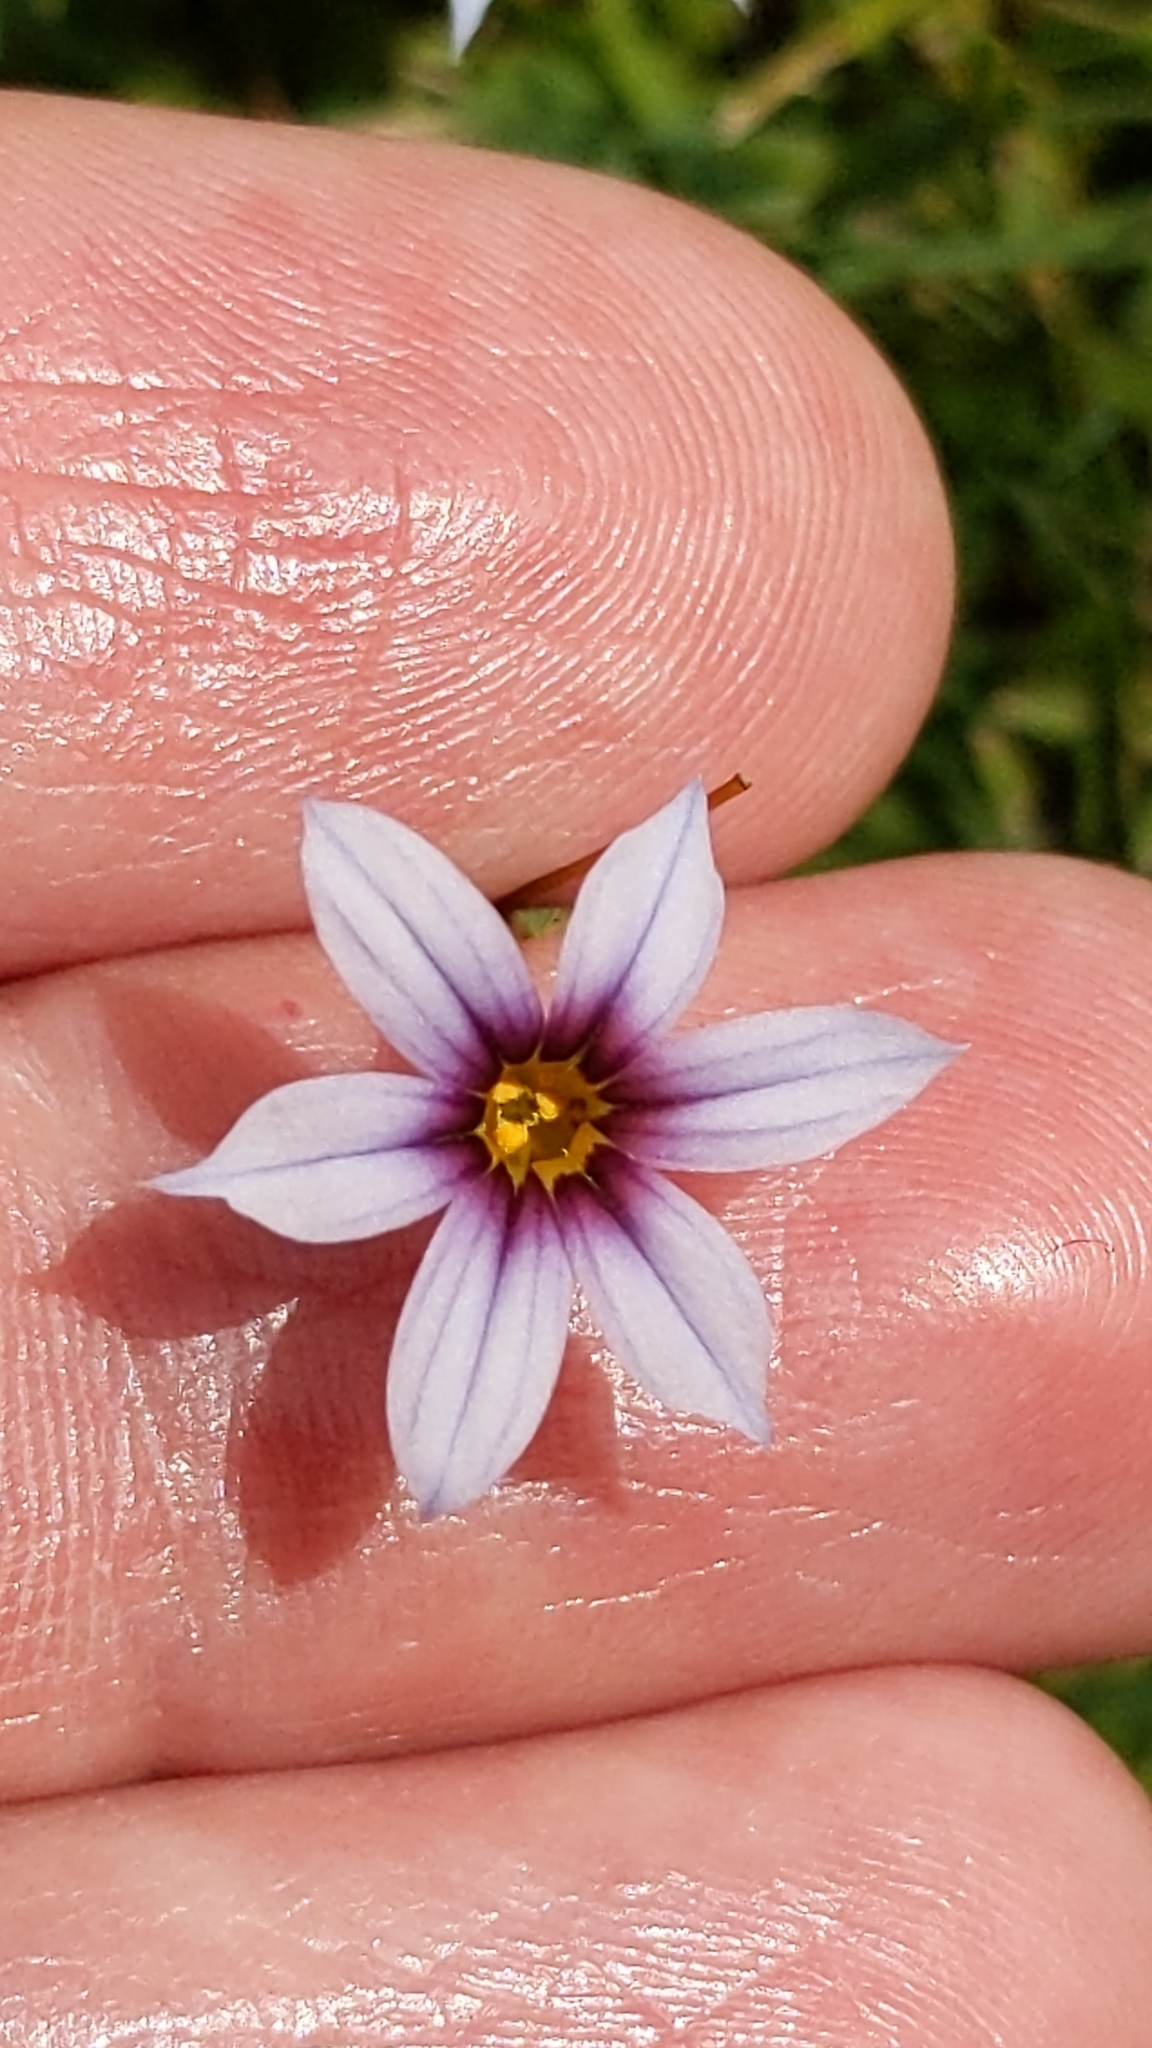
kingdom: Plantae
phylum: Tracheophyta
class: Liliopsida
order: Asparagales
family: Iridaceae
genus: Sisyrinchium
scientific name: Sisyrinchium micranthum
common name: Bermuda pigroot
